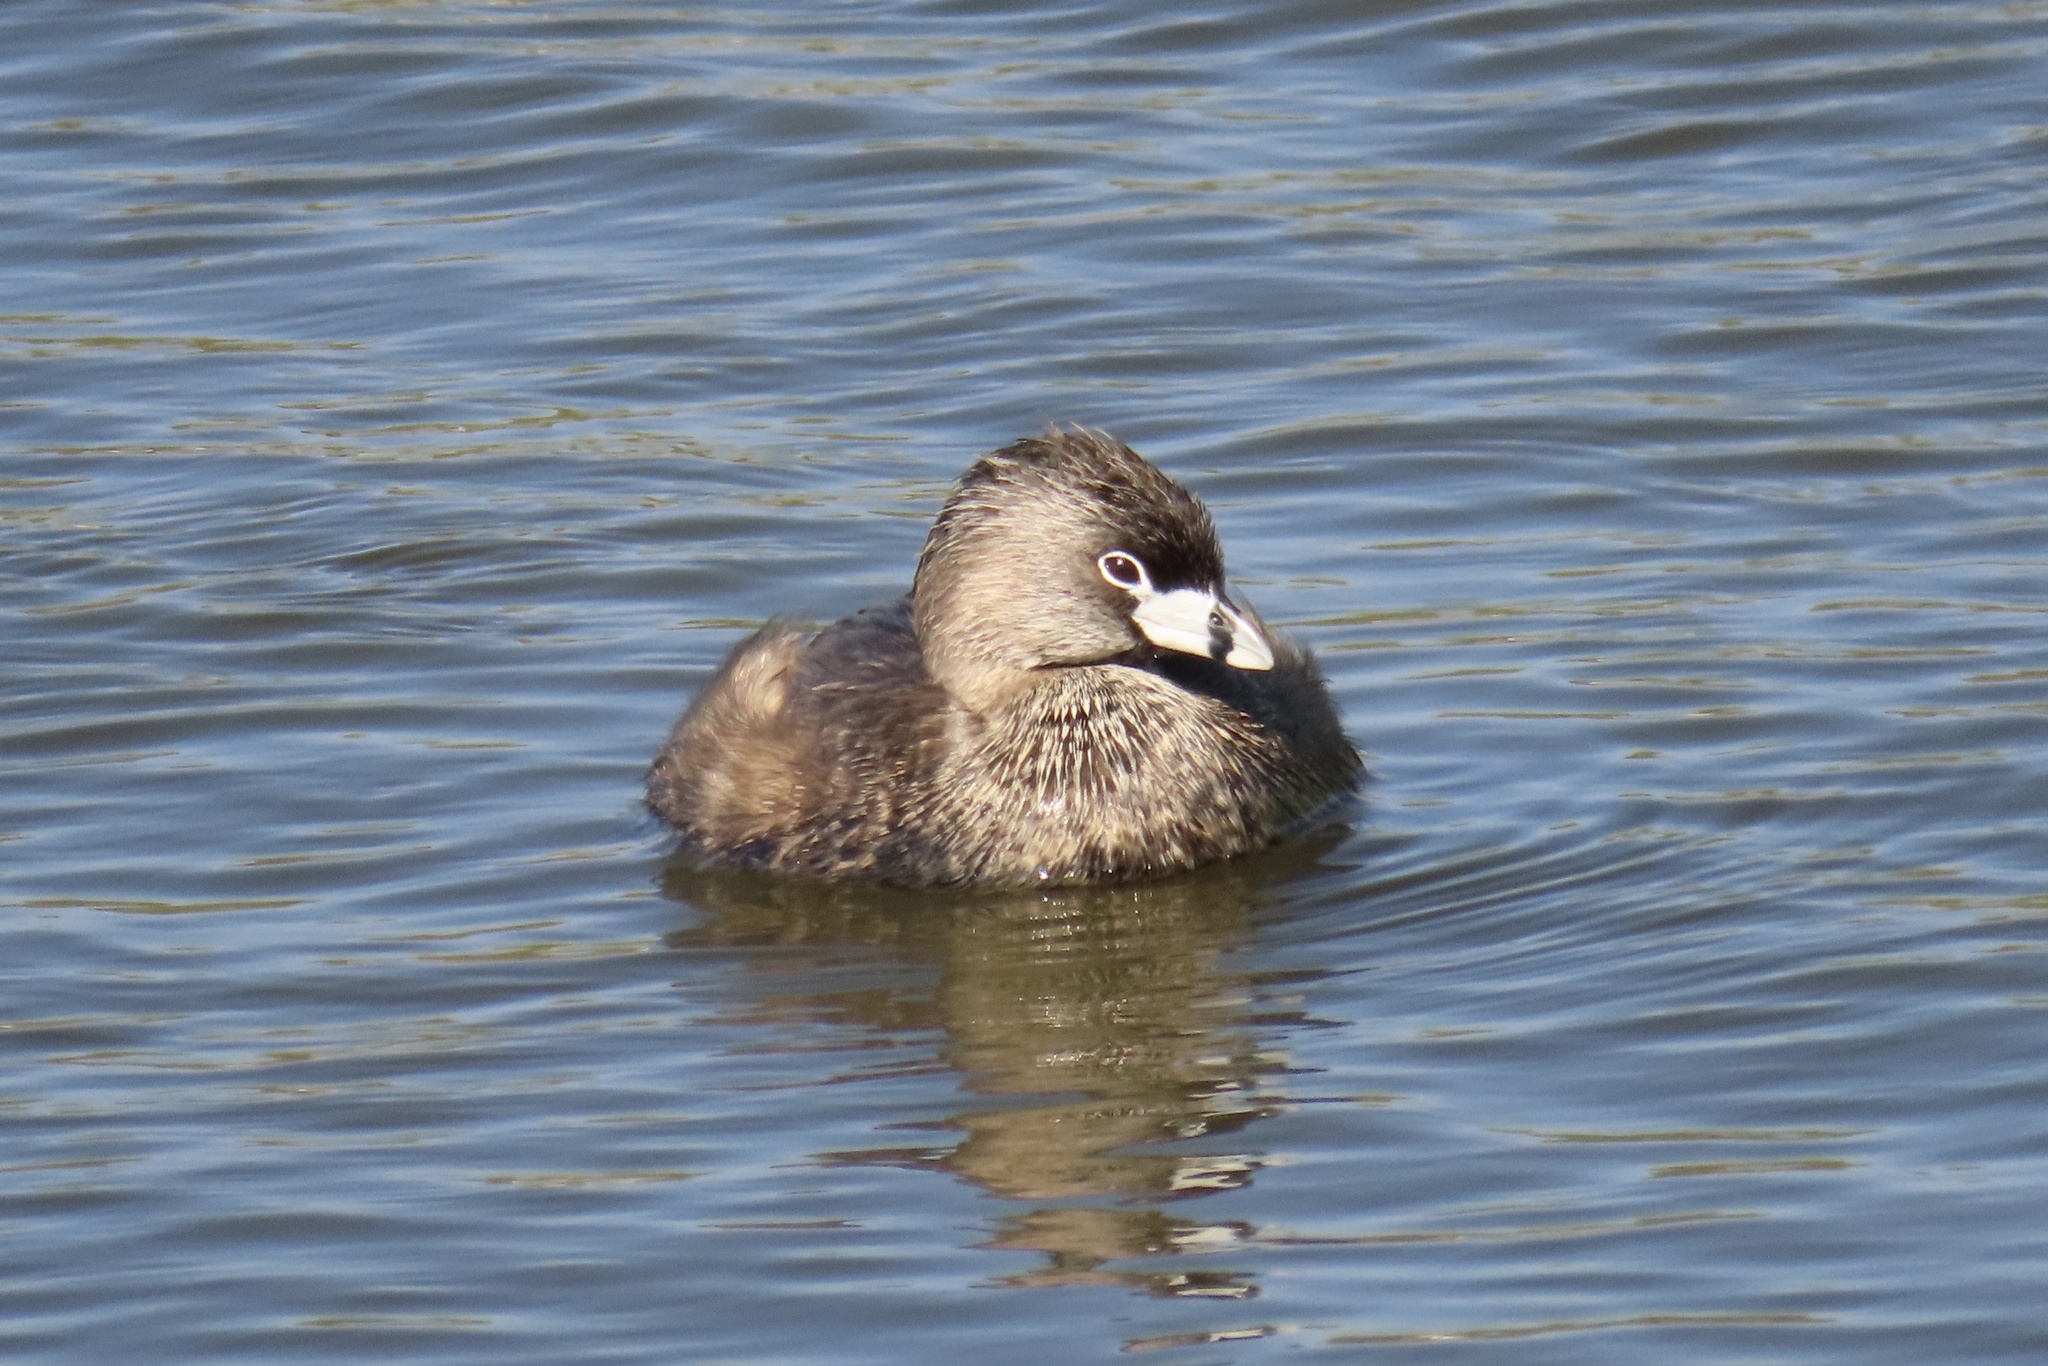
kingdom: Animalia
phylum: Chordata
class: Aves
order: Podicipediformes
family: Podicipedidae
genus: Podilymbus
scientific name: Podilymbus podiceps
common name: Pied-billed grebe
